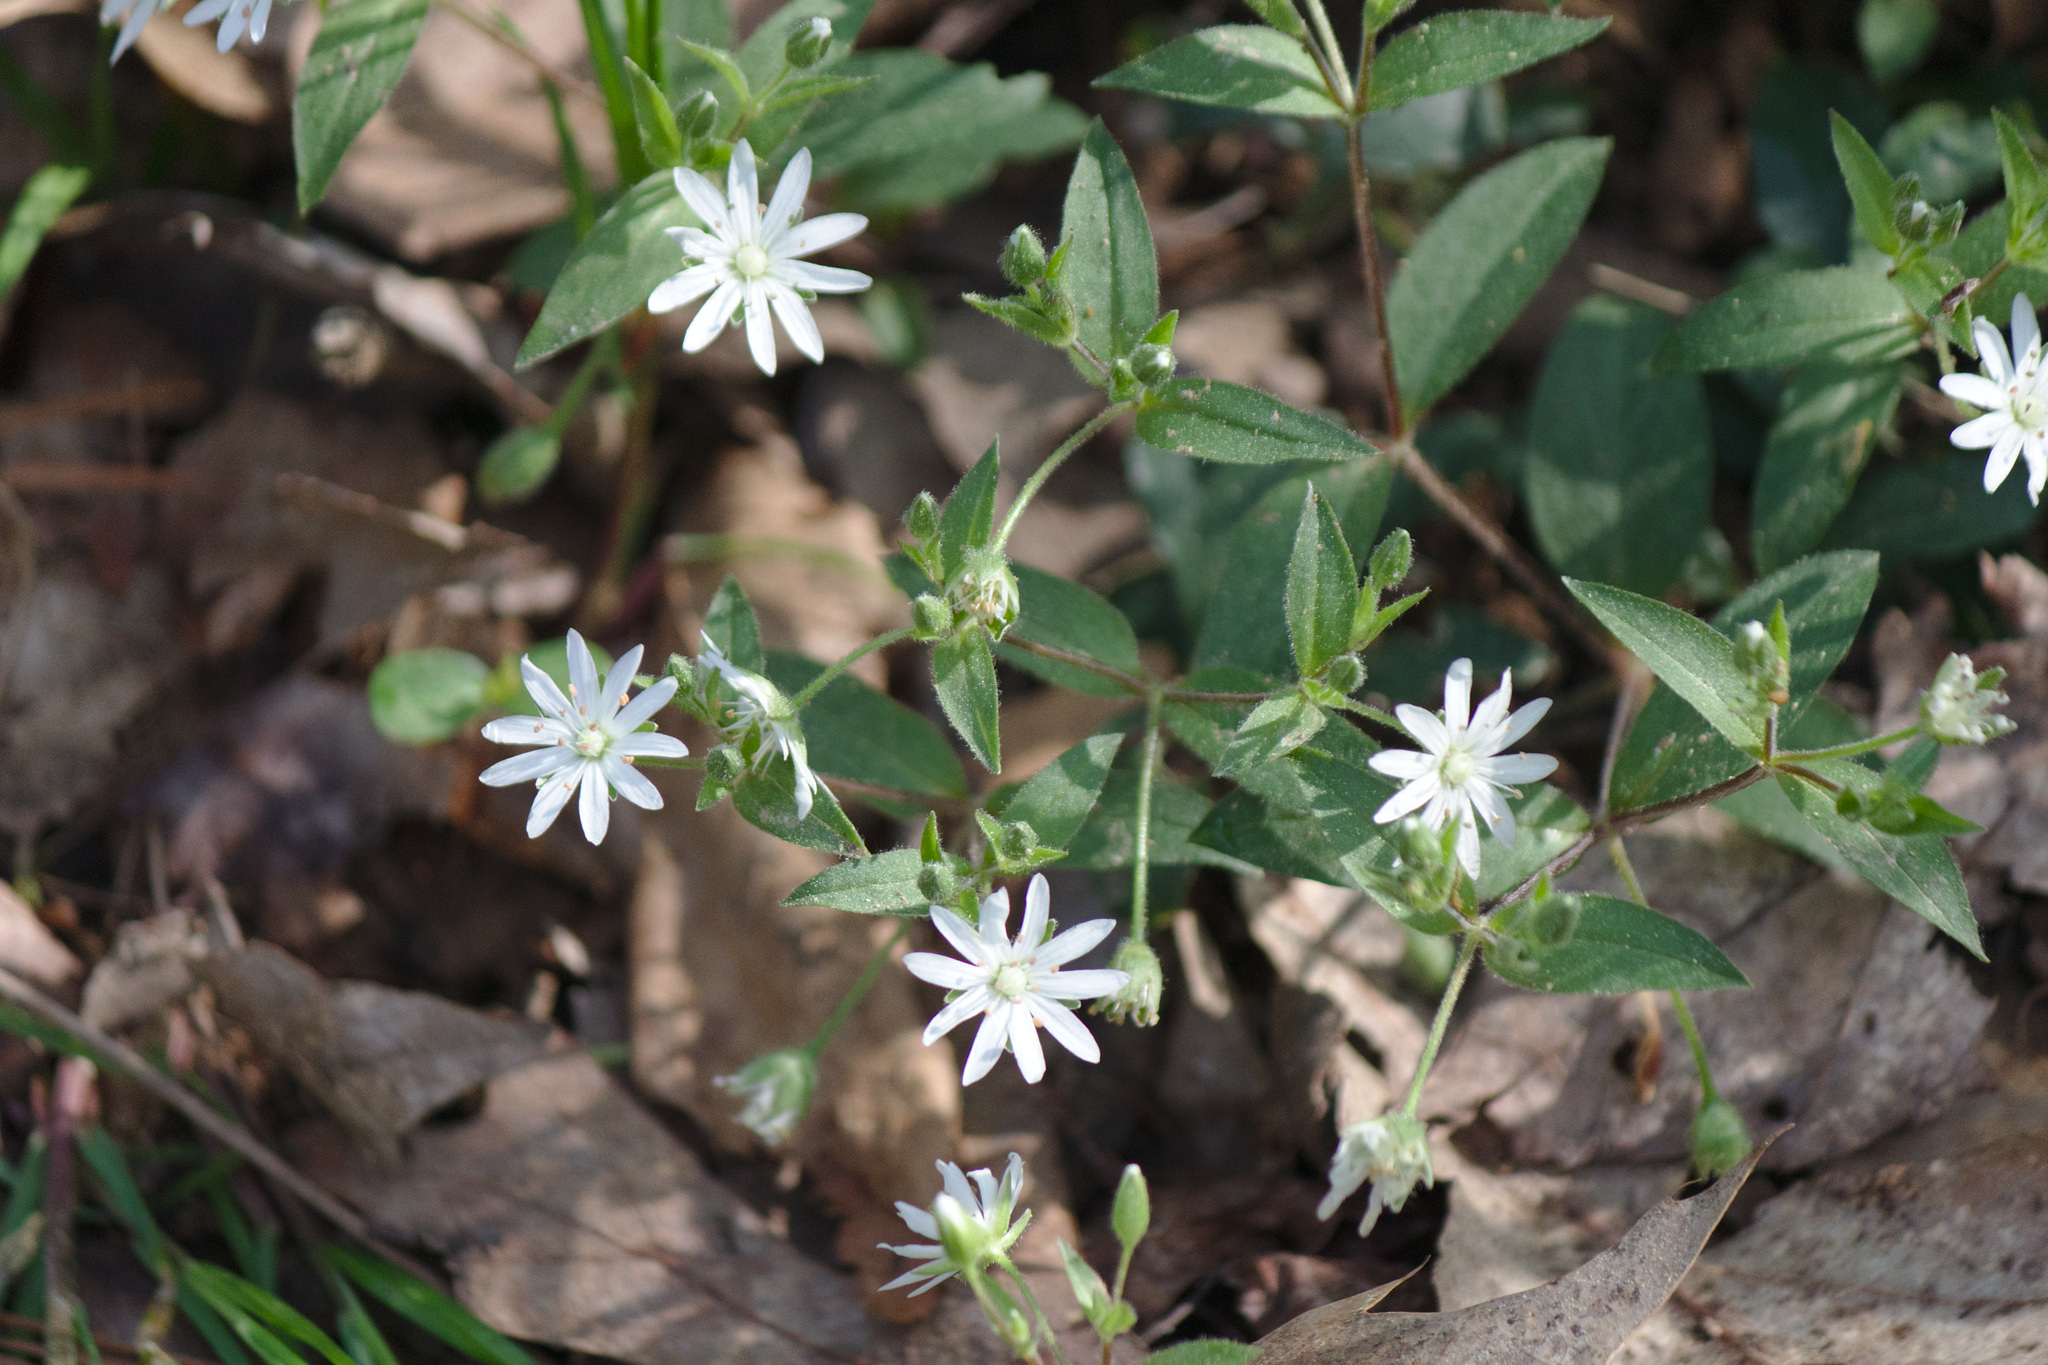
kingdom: Plantae
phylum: Tracheophyta
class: Magnoliopsida
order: Caryophyllales
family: Caryophyllaceae
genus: Stellaria
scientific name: Stellaria pubera
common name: Star chickweed
